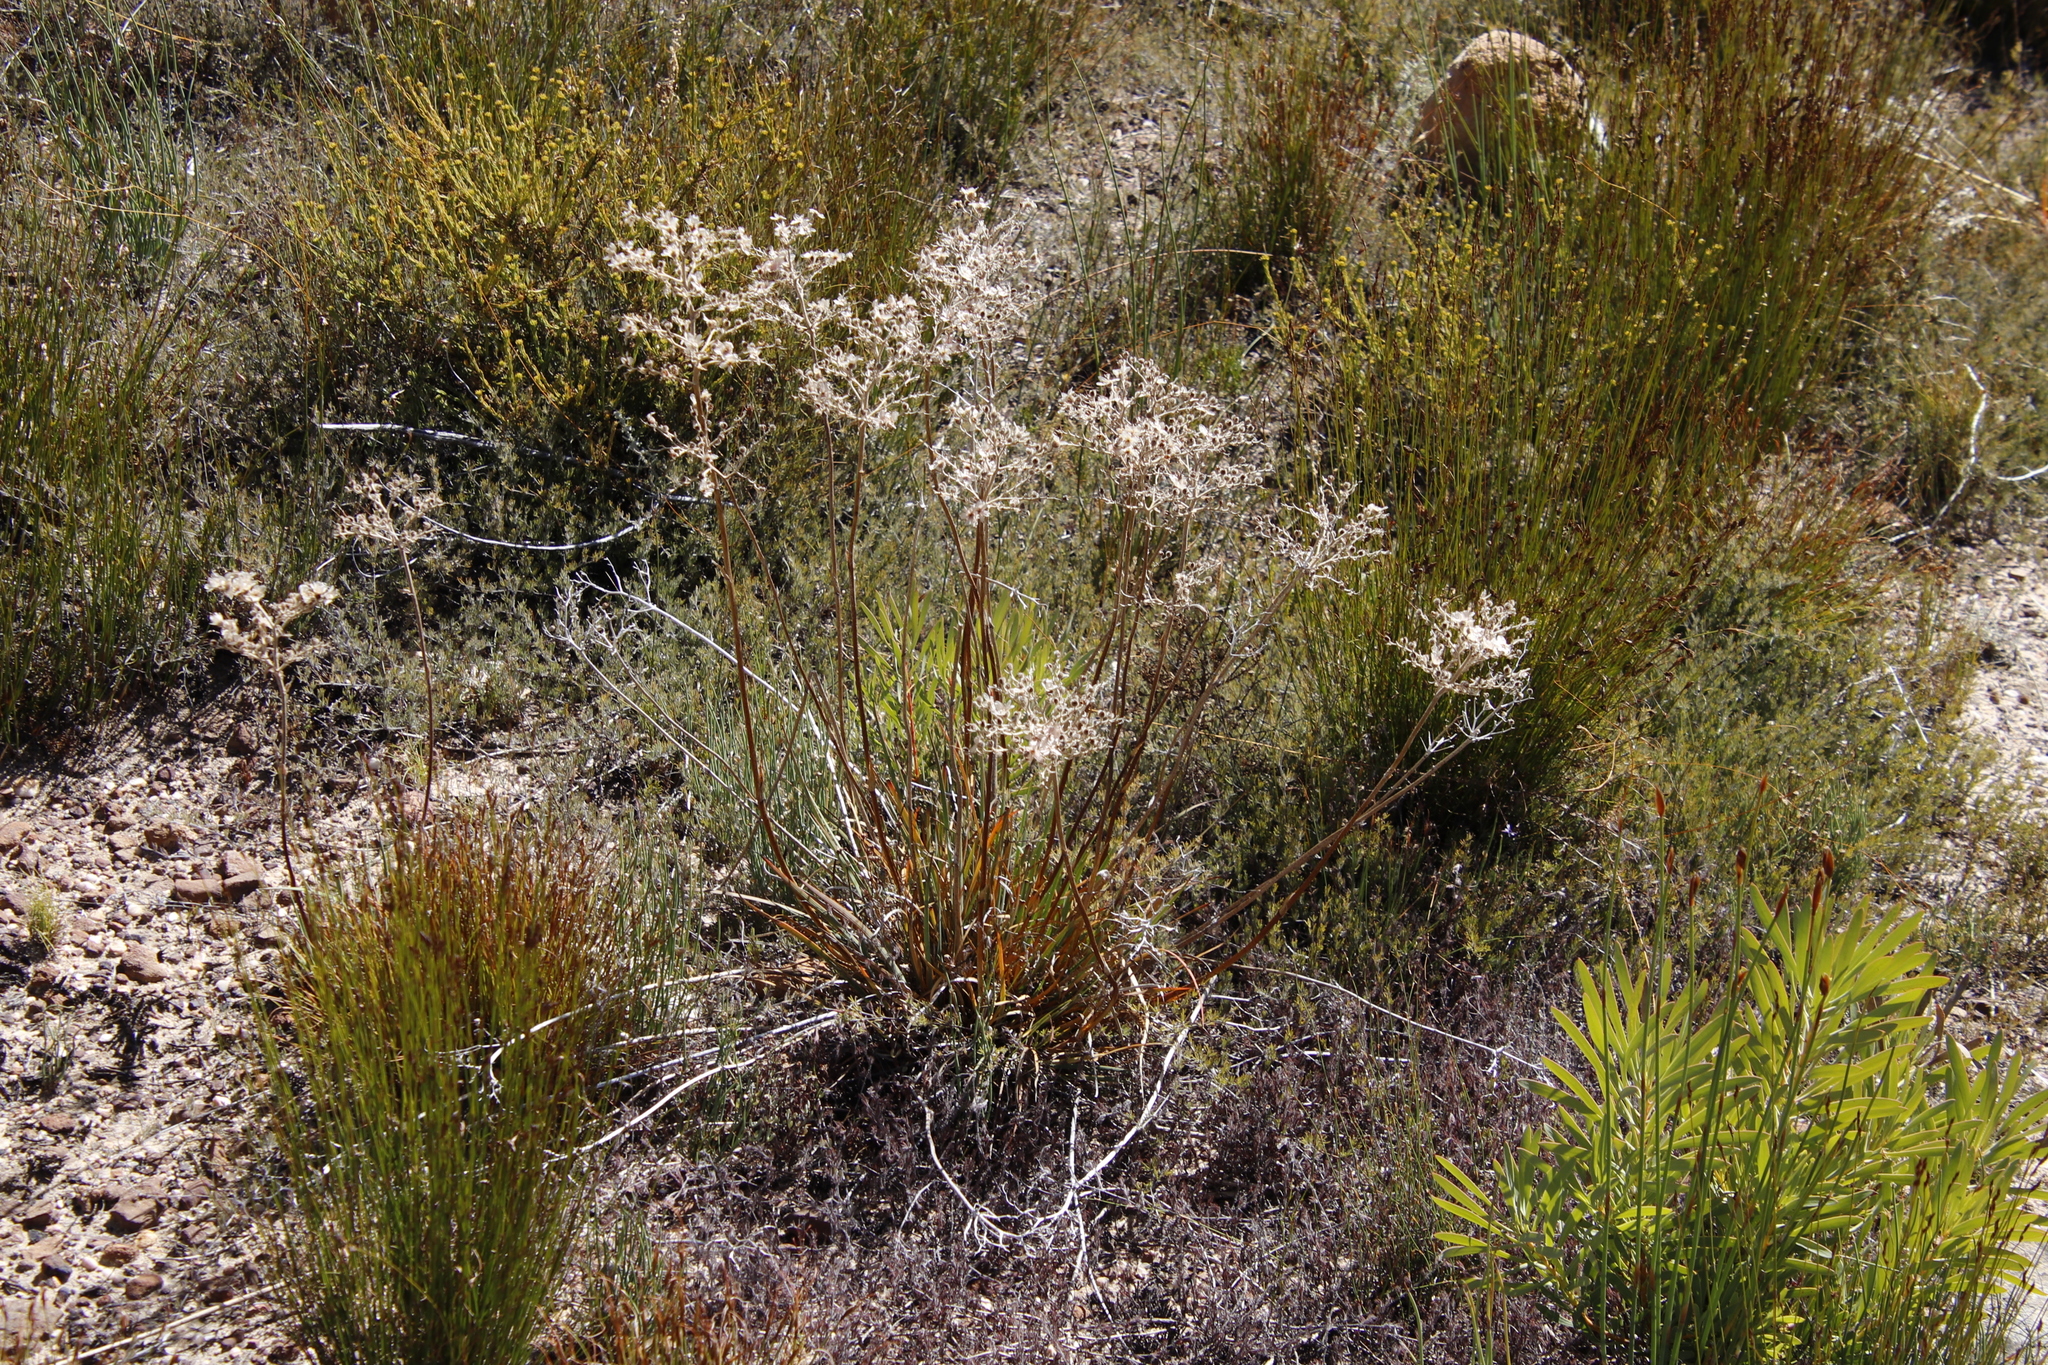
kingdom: Plantae
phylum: Tracheophyta
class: Liliopsida
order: Commelinales
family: Haemodoraceae
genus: Dilatris
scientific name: Dilatris ixioides
